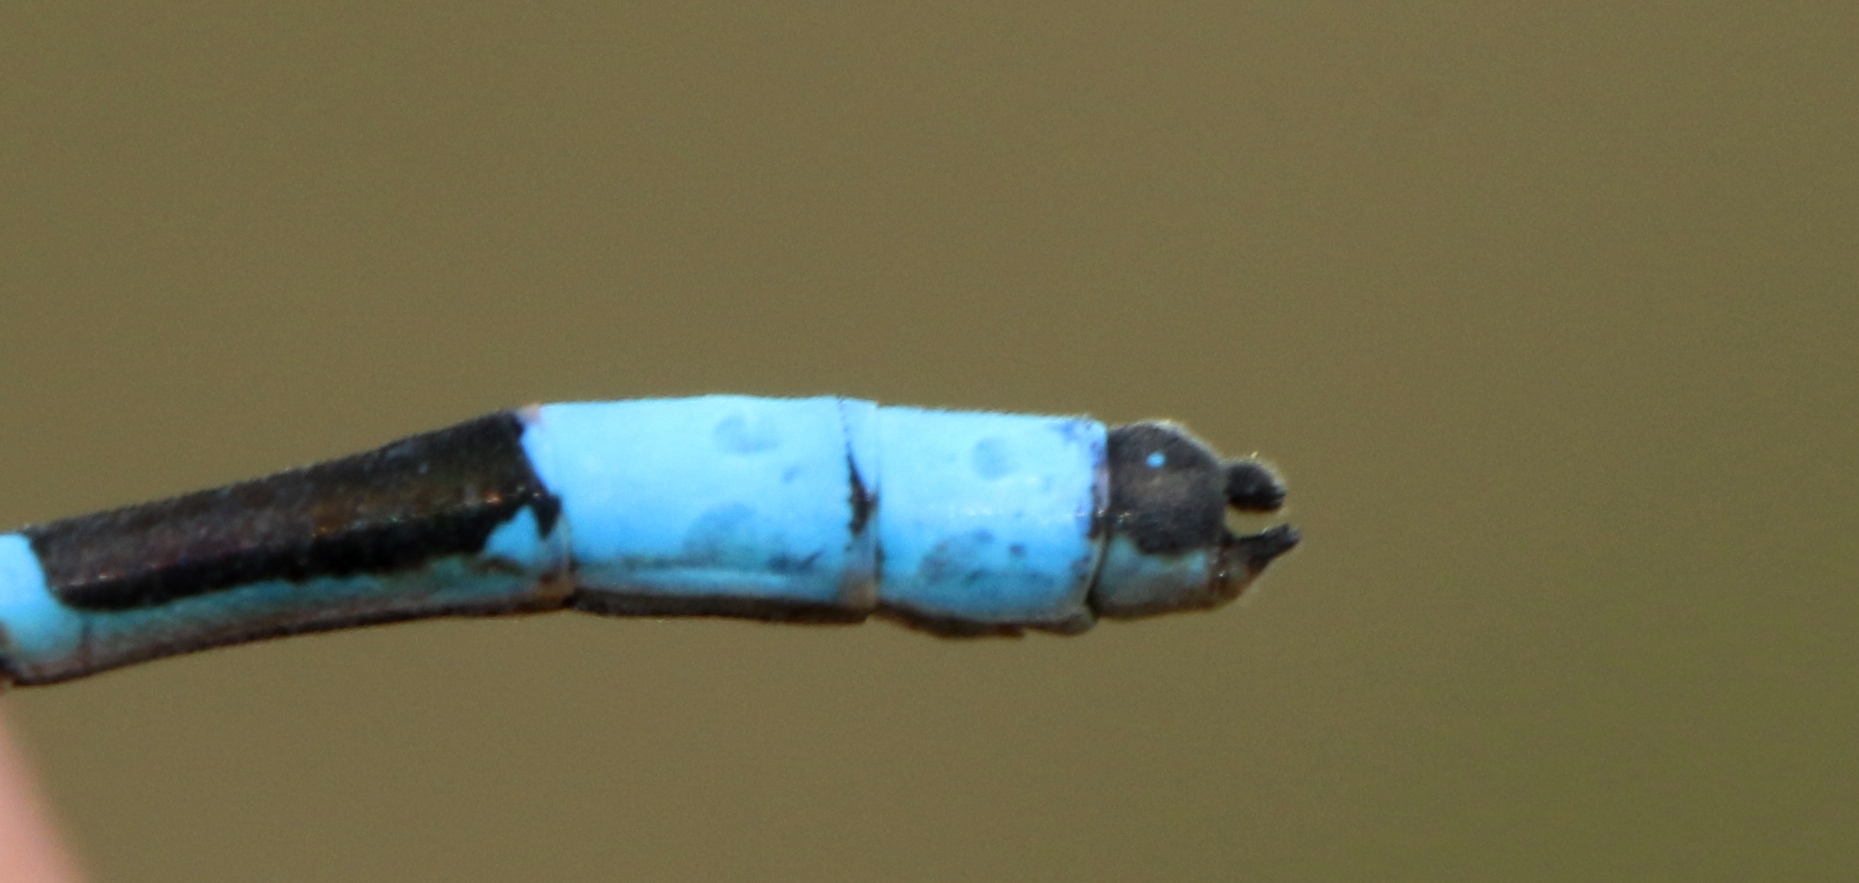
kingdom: Animalia
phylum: Arthropoda
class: Insecta
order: Odonata
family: Coenagrionidae
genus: Enallagma
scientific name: Enallagma boreale
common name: Boreal bluet
